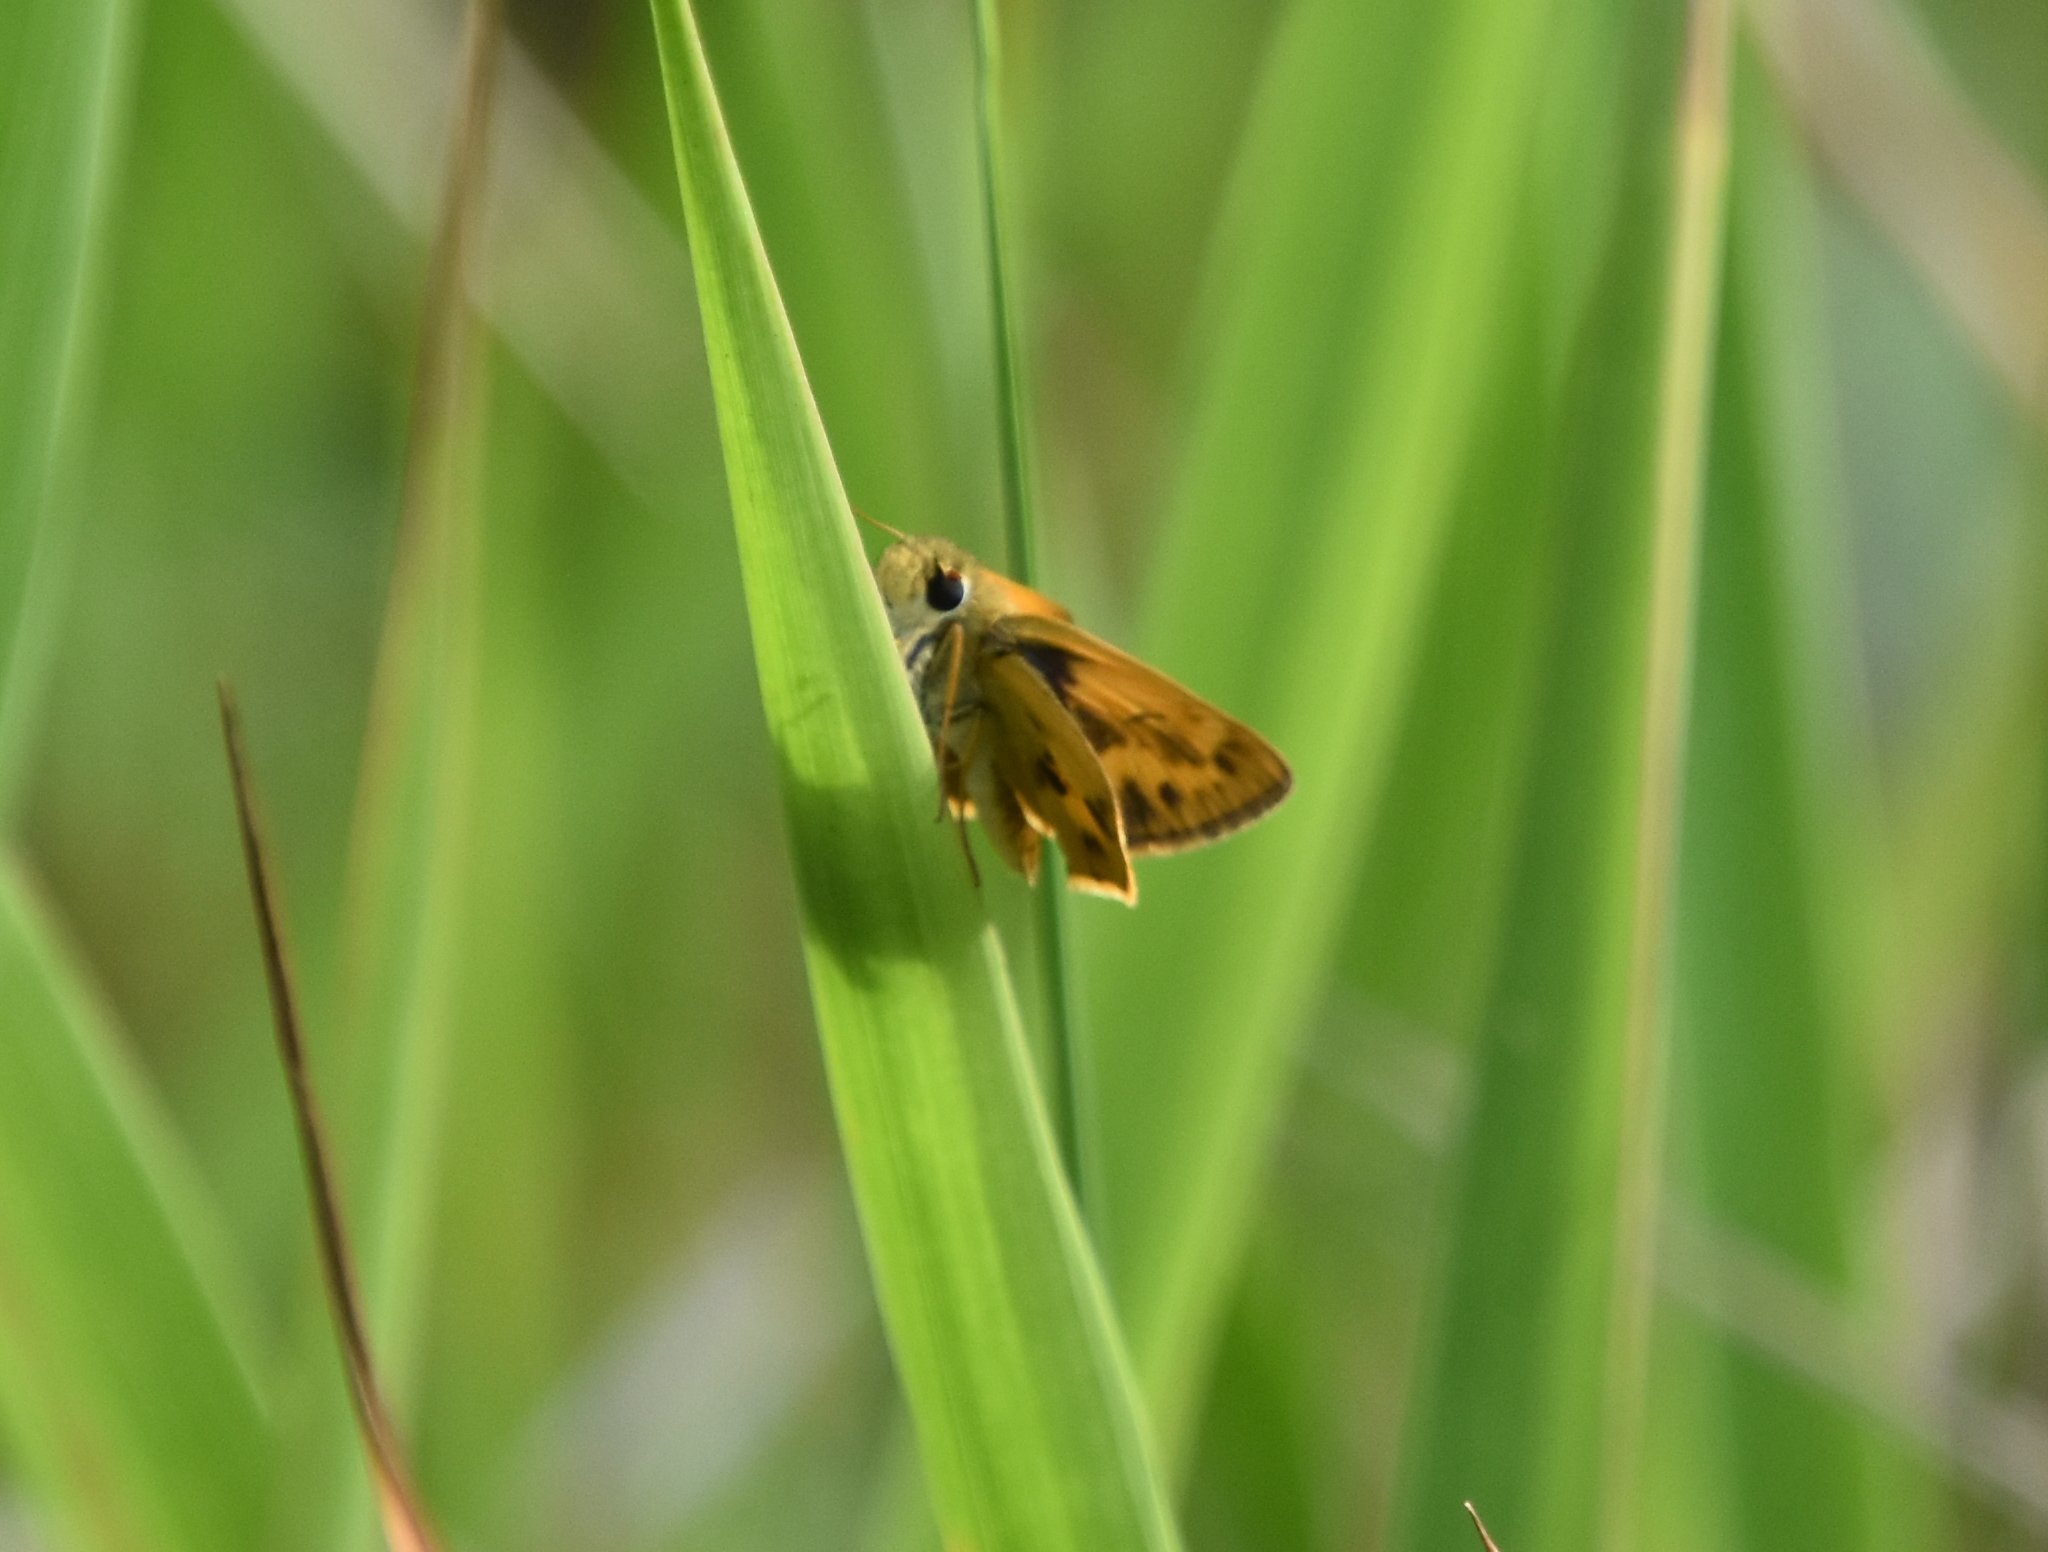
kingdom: Animalia
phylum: Arthropoda
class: Insecta
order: Lepidoptera
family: Hesperiidae
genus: Polites
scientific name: Polites vibex
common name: Whirlabout
